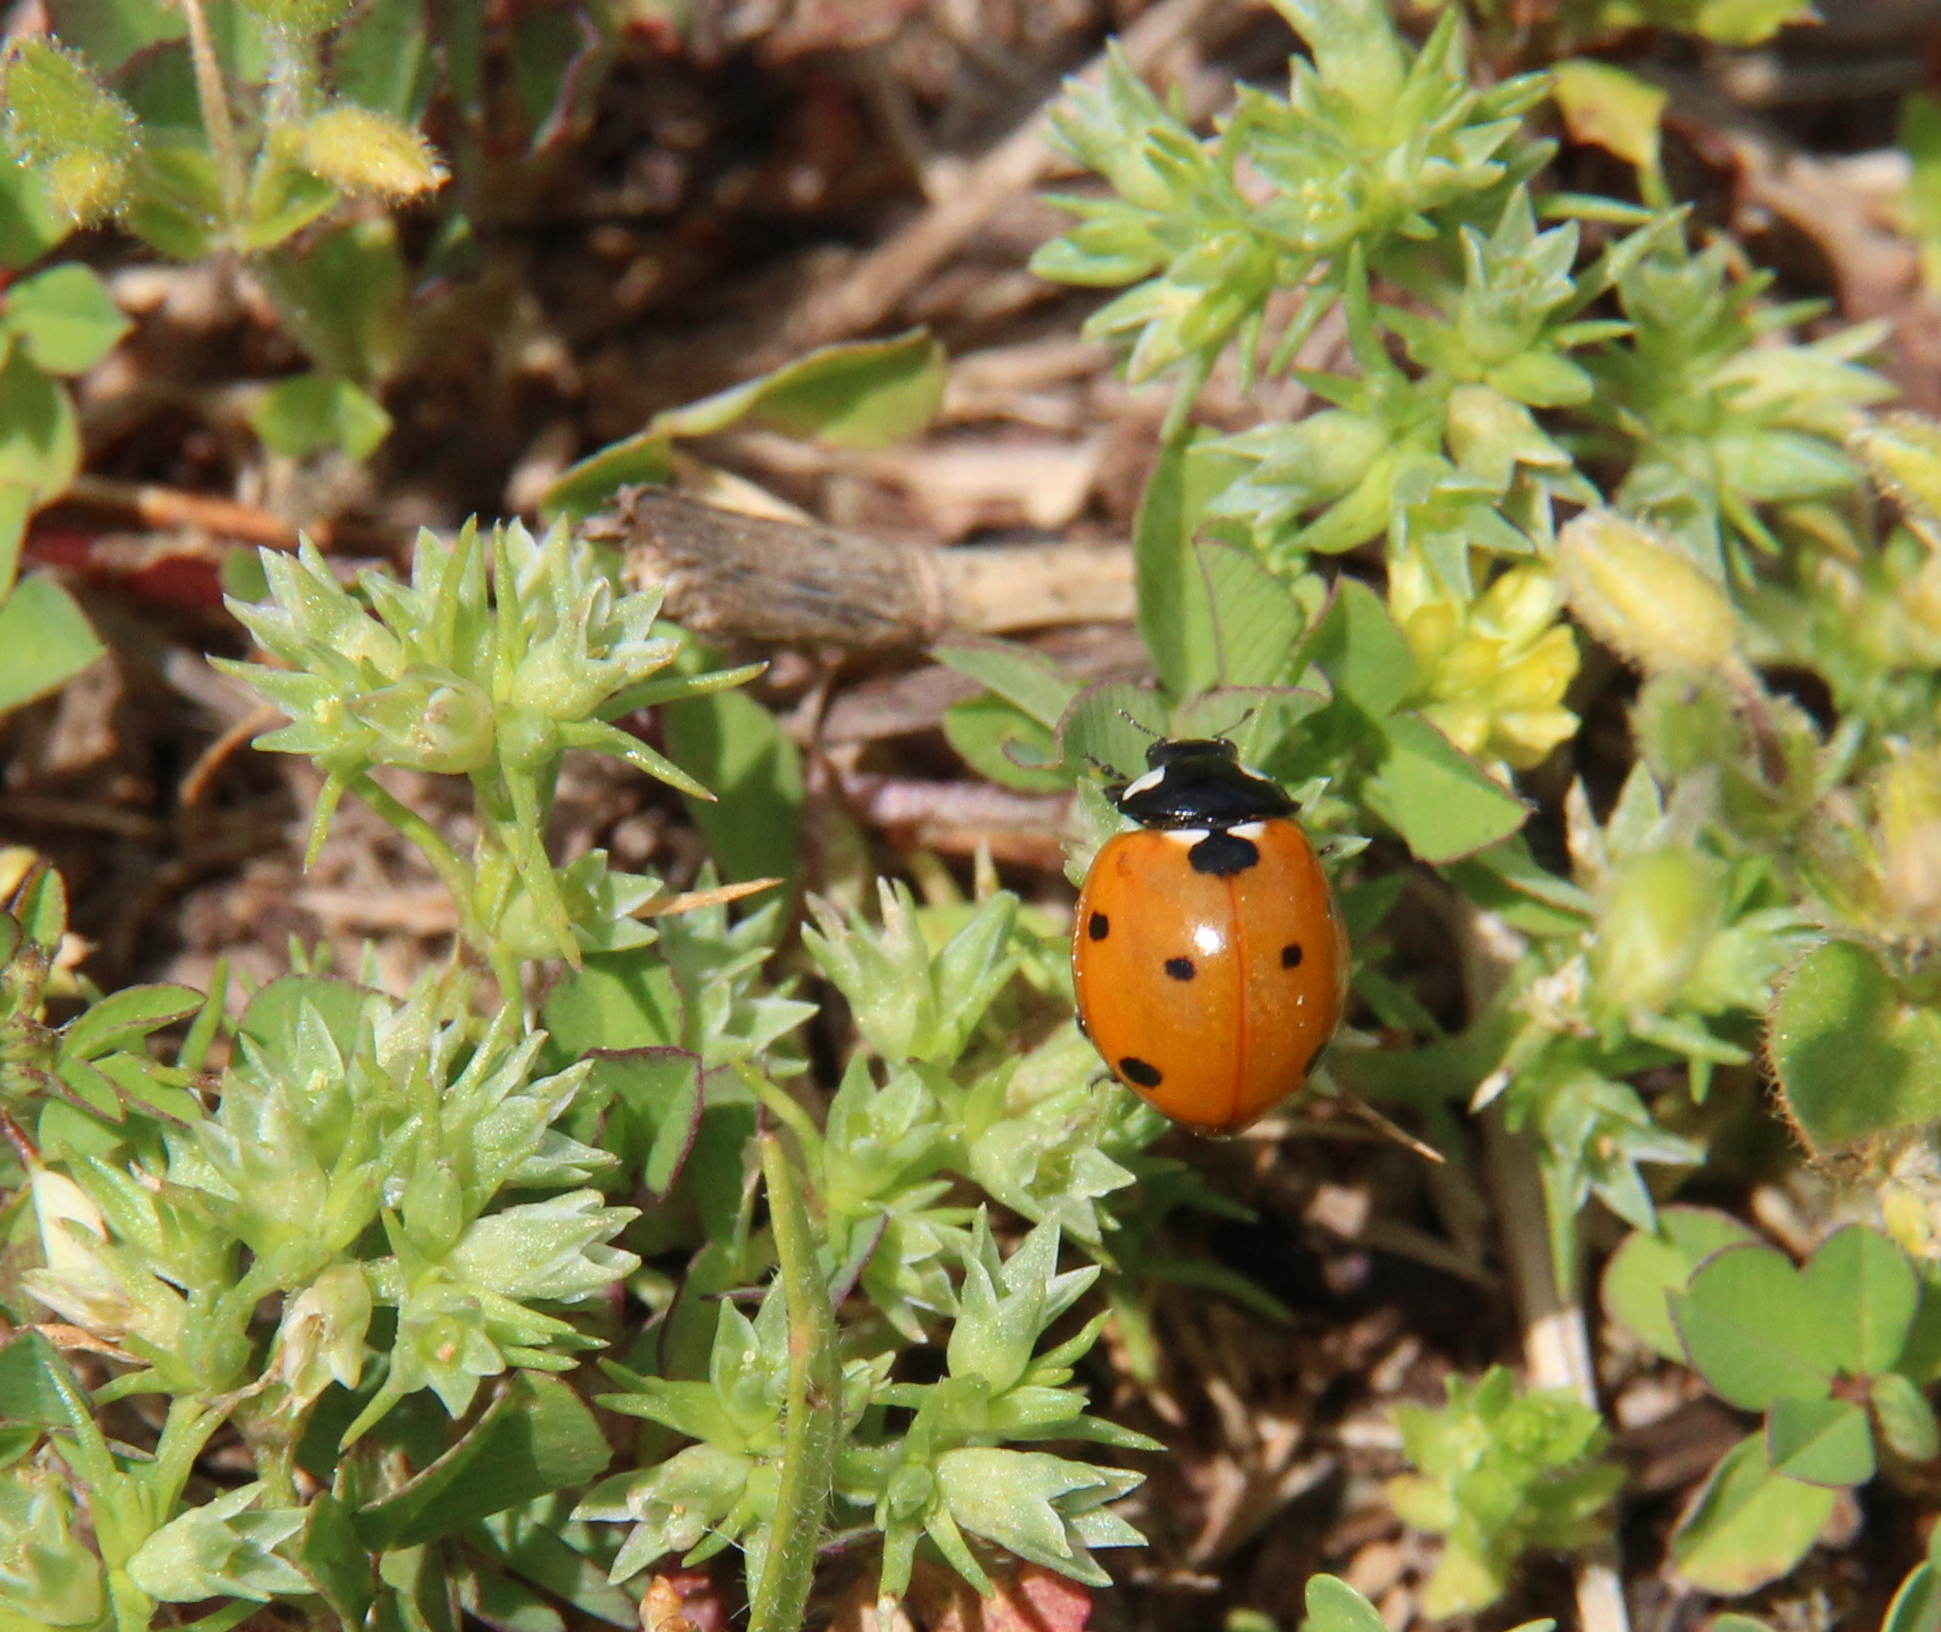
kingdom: Animalia
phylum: Arthropoda
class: Insecta
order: Coleoptera
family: Coccinellidae
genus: Coccinella
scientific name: Coccinella septempunctata
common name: Sevenspotted lady beetle
